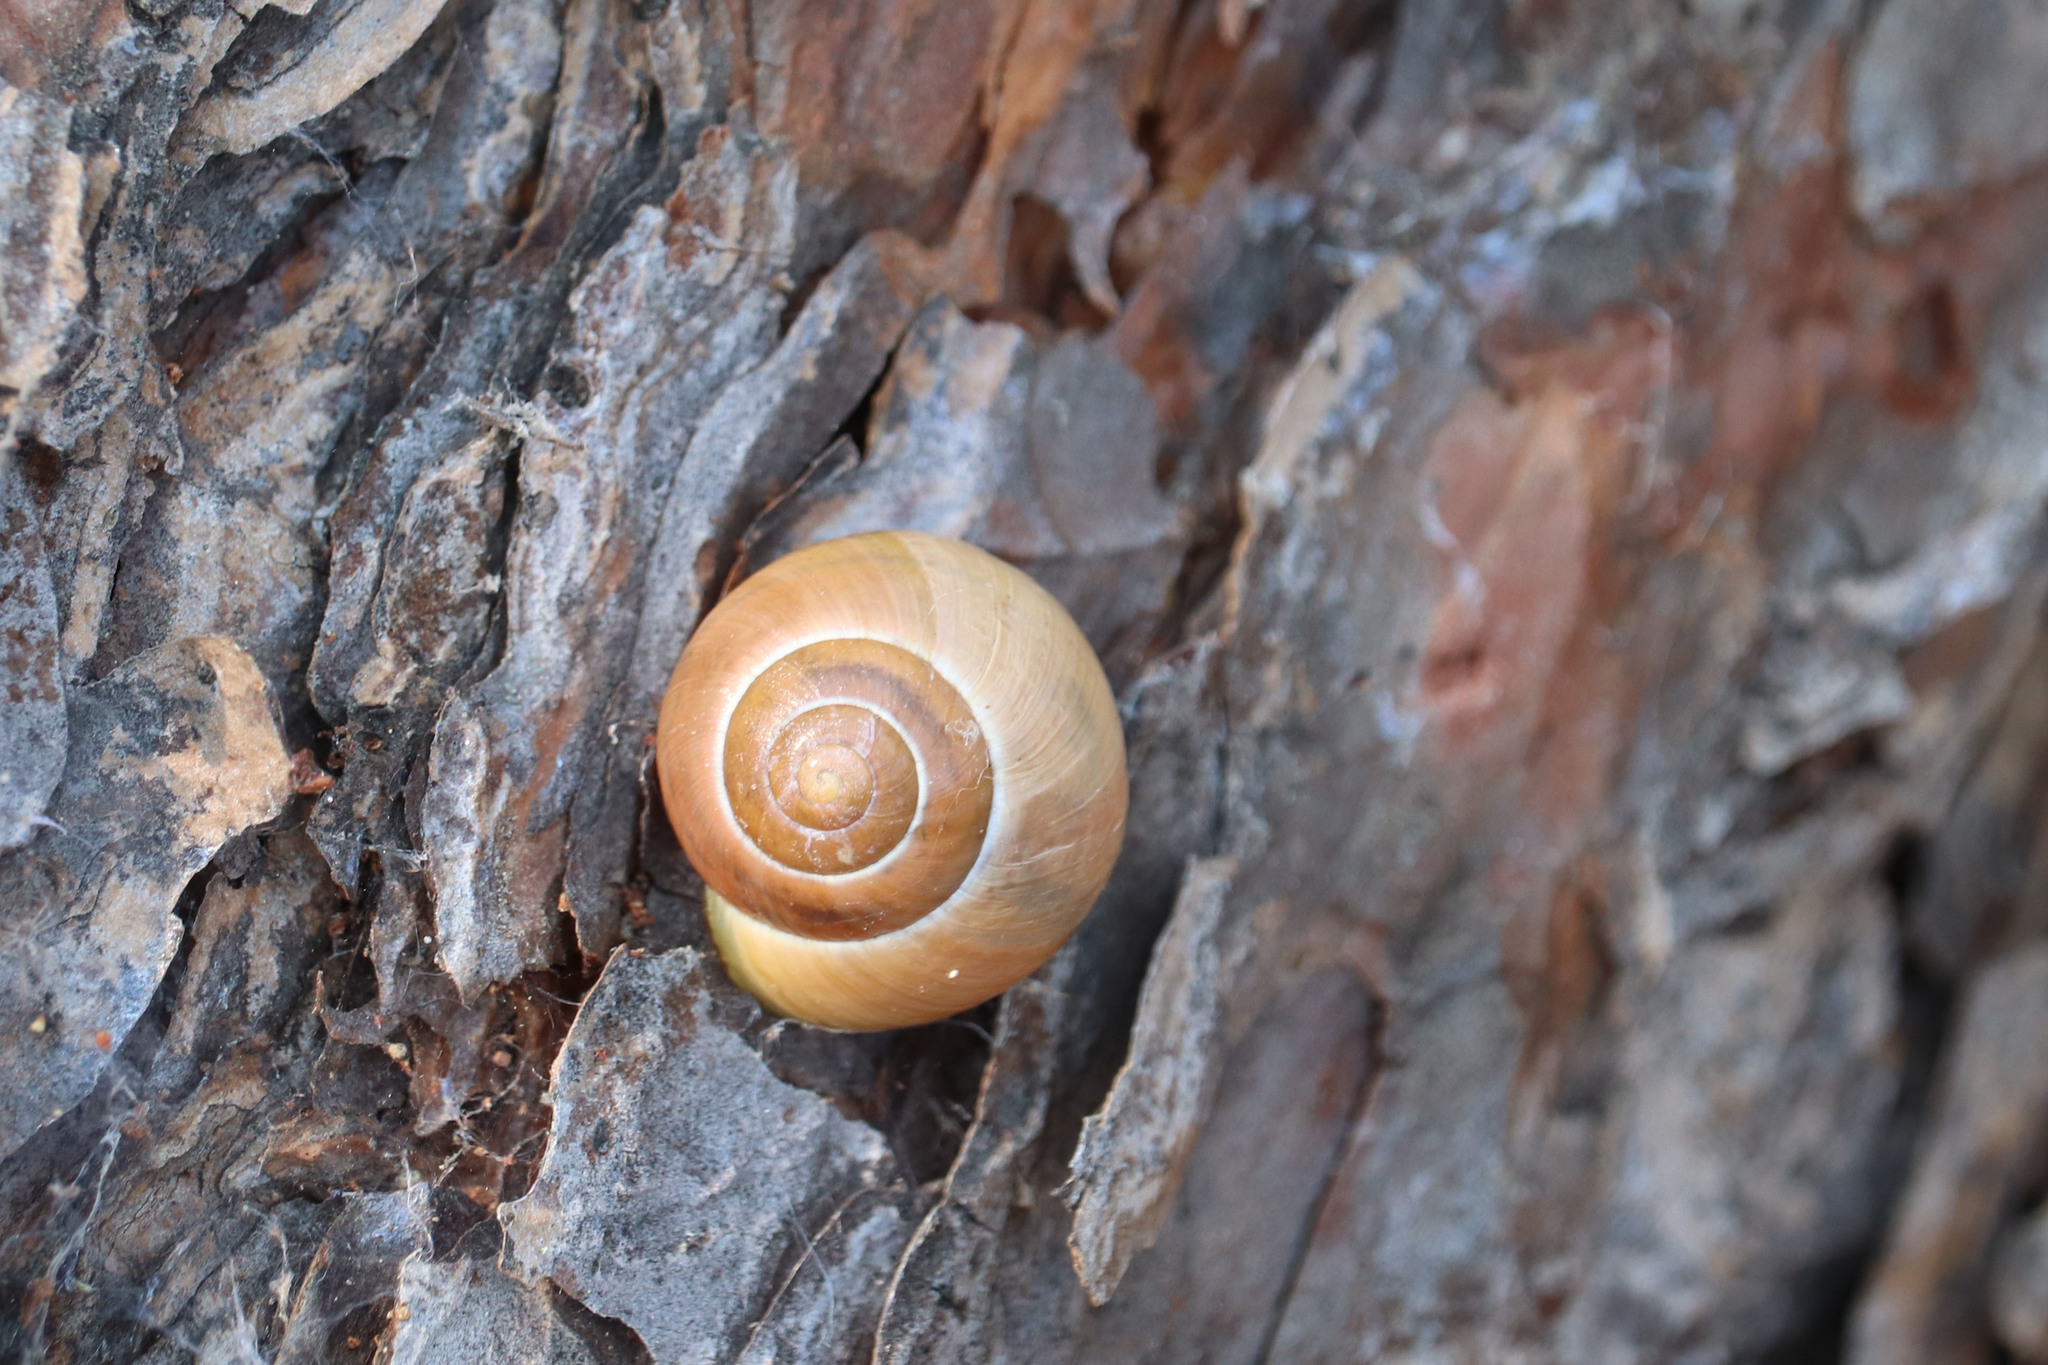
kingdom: Animalia
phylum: Mollusca
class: Gastropoda
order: Stylommatophora
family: Helicidae
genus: Cepaea
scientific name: Cepaea nemoralis
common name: Grovesnail
